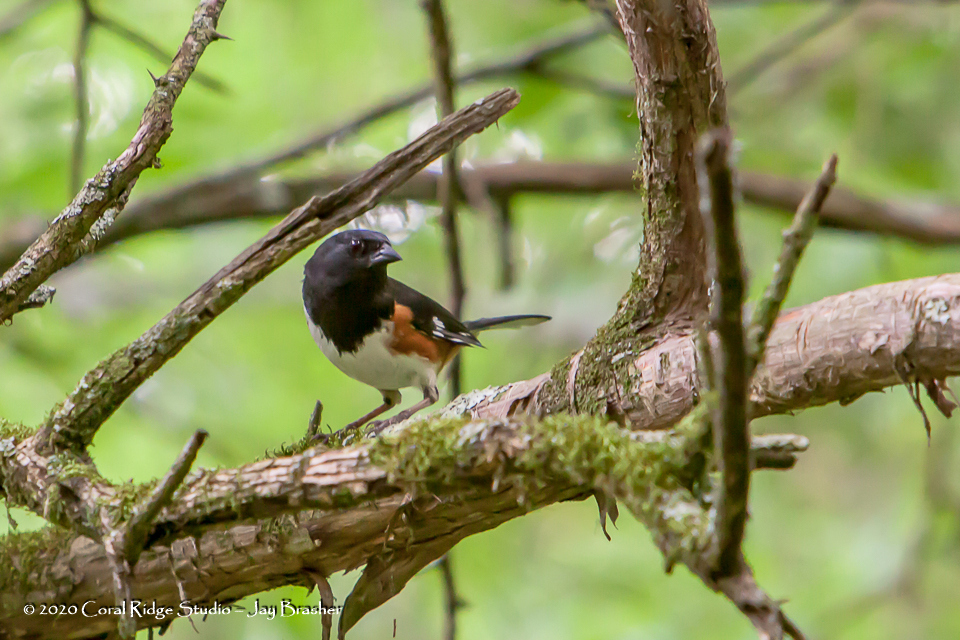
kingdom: Animalia
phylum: Chordata
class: Aves
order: Passeriformes
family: Passerellidae
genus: Pipilo
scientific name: Pipilo erythrophthalmus
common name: Eastern towhee
